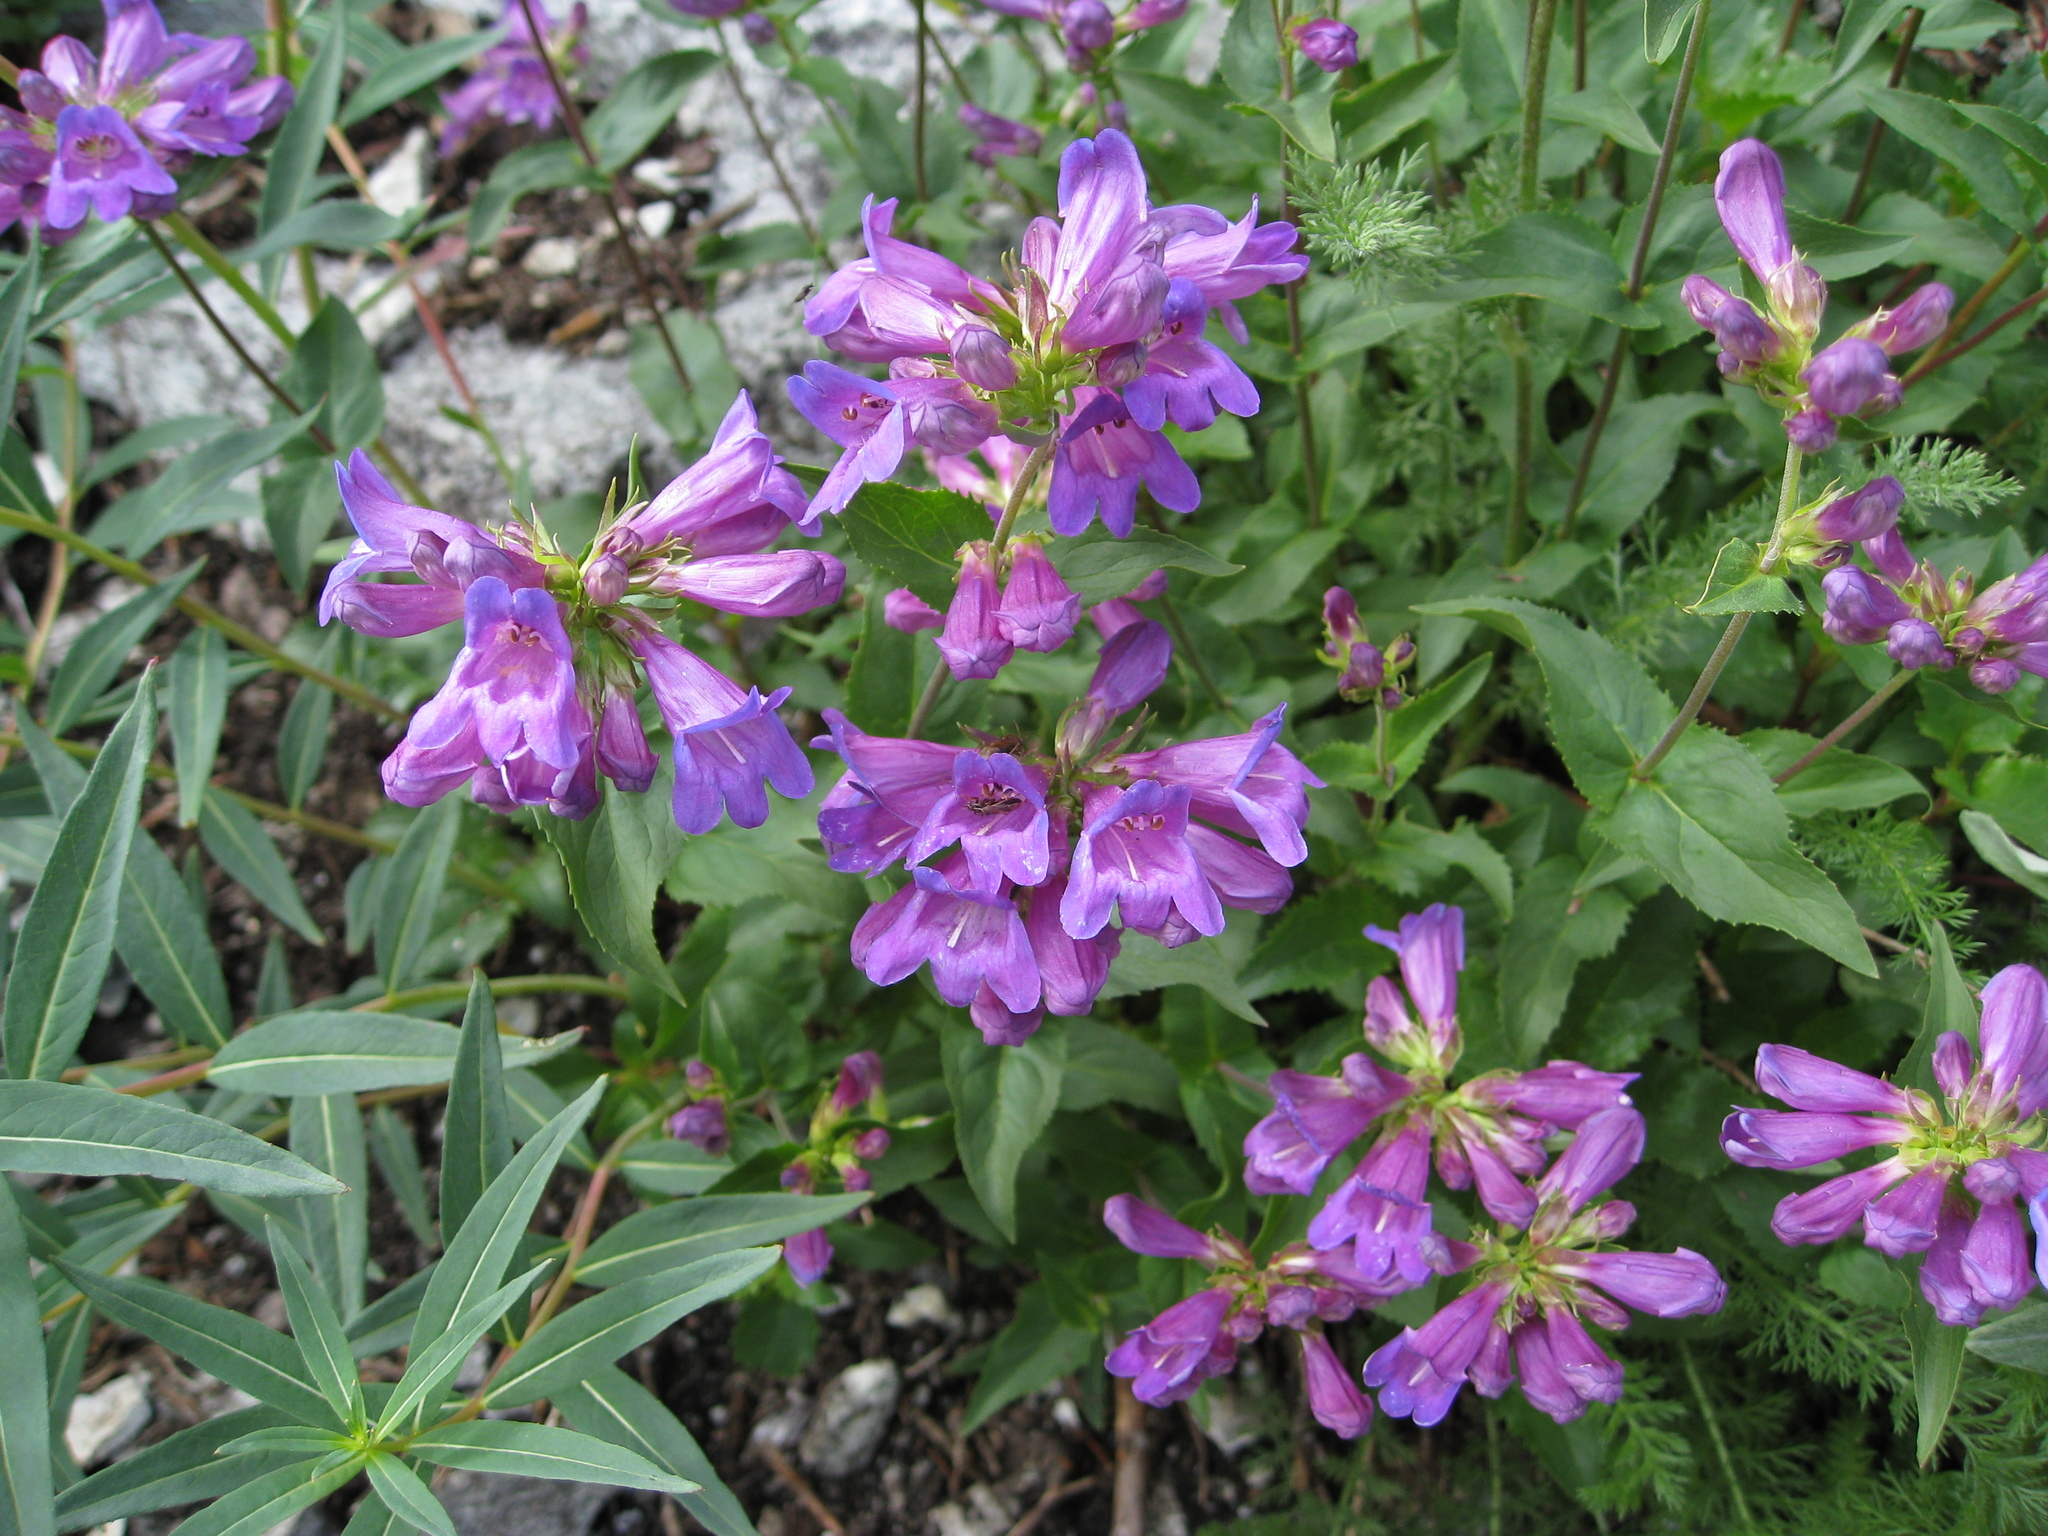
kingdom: Plantae
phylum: Tracheophyta
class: Magnoliopsida
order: Lamiales
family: Plantaginaceae
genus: Penstemon
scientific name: Penstemon serrulatus
